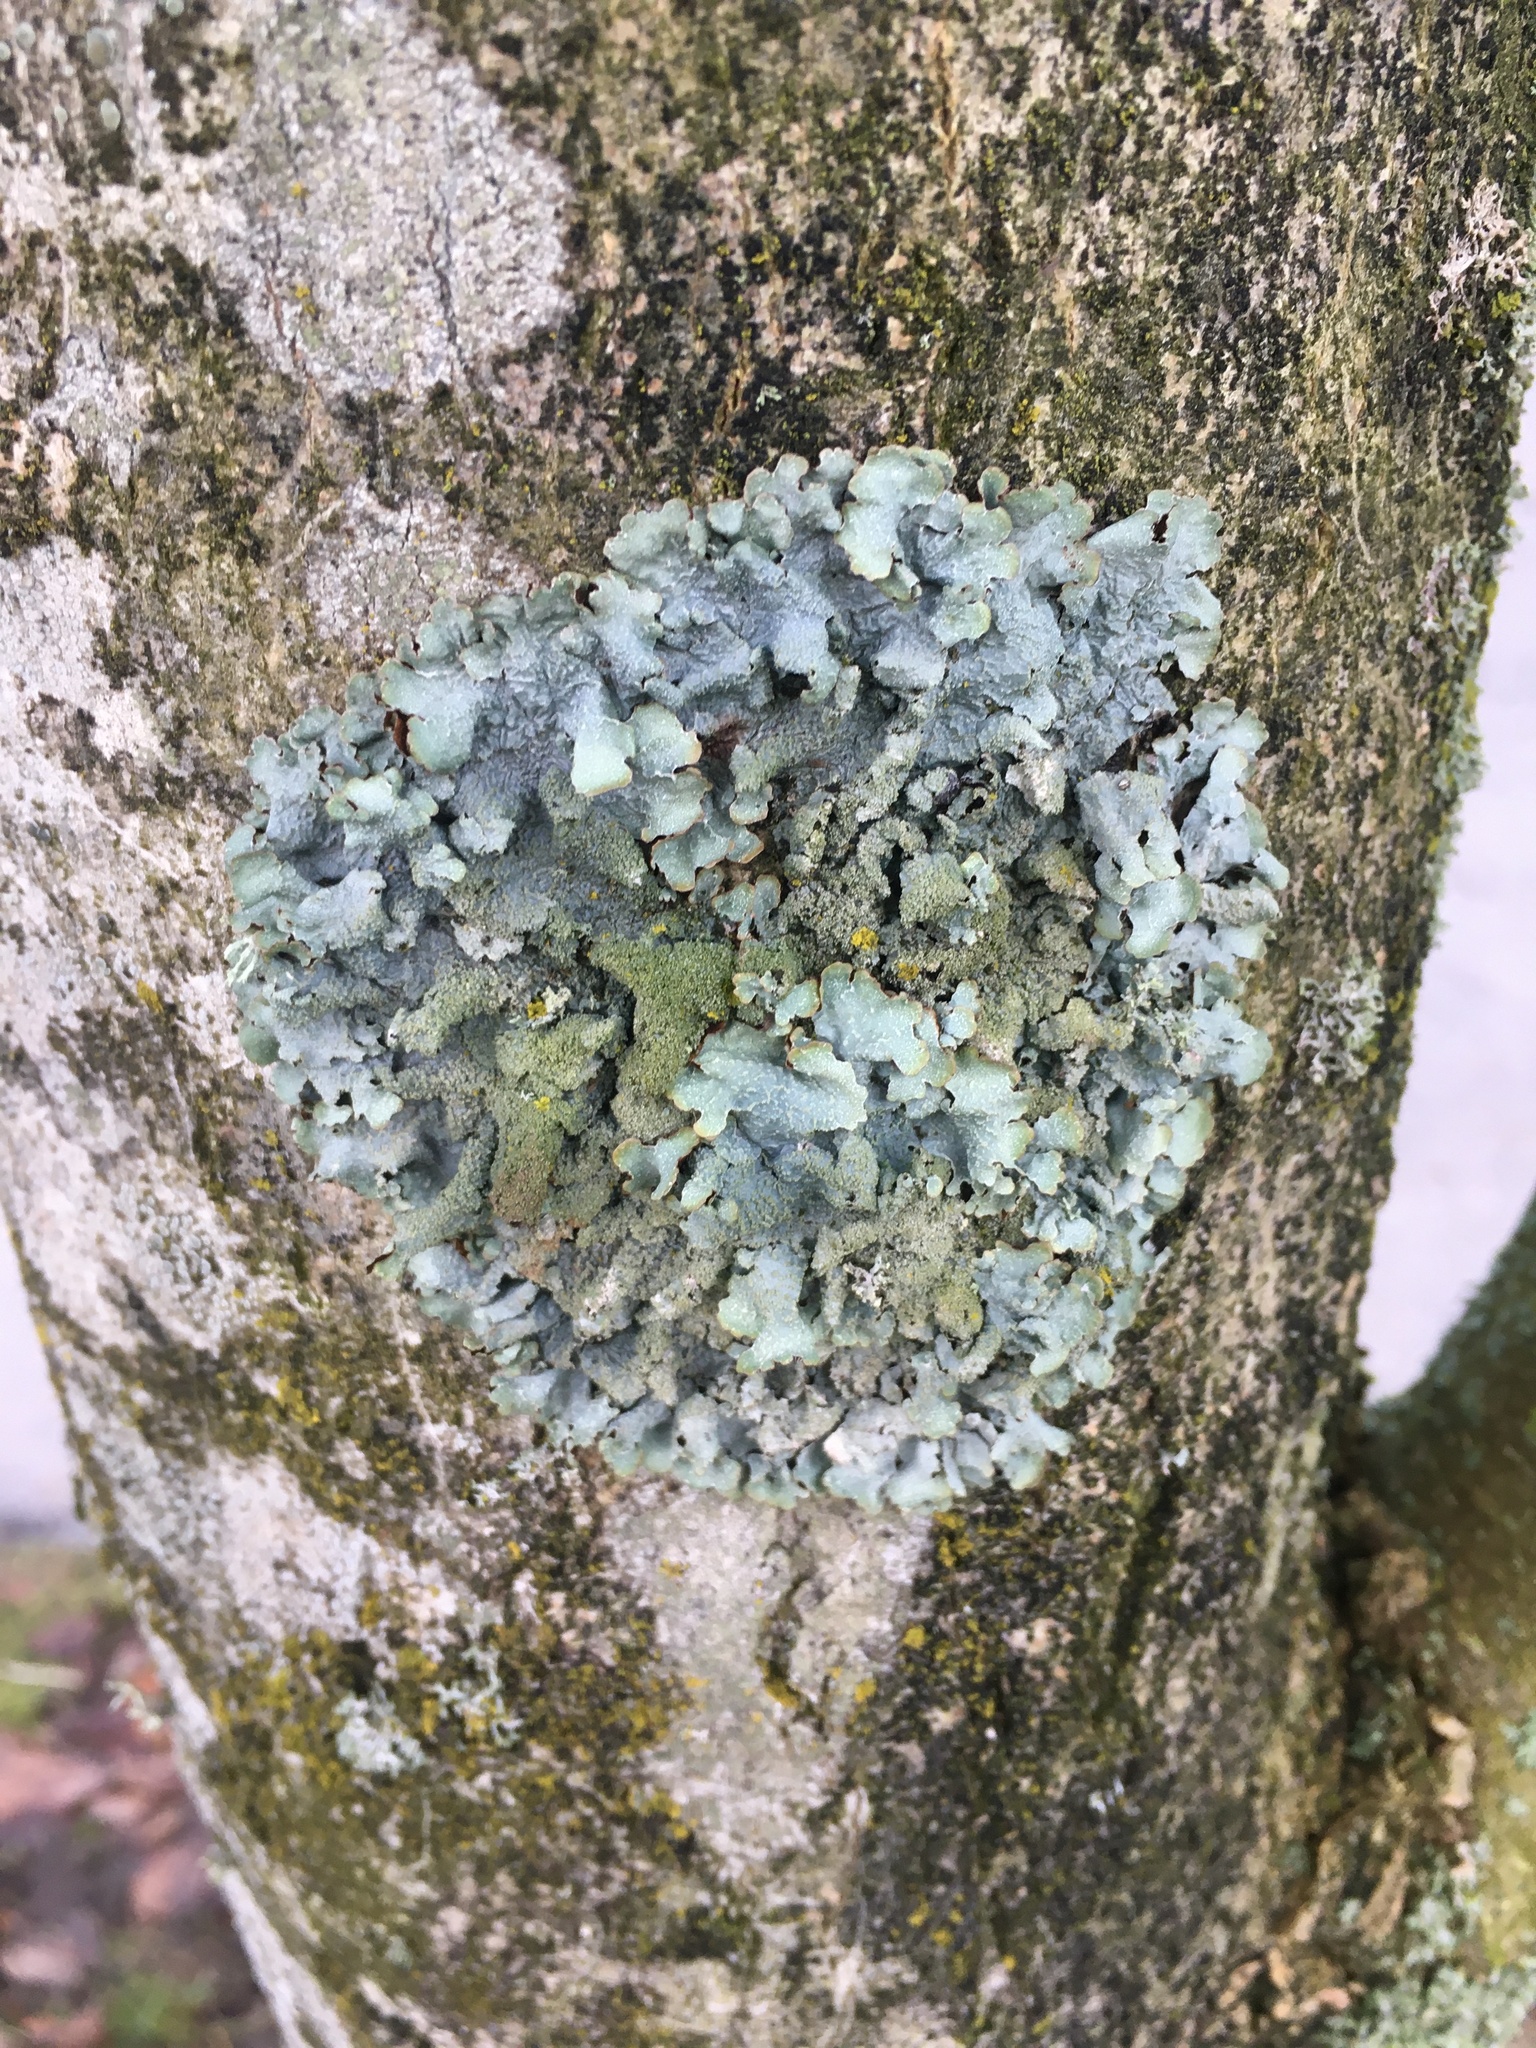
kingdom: Fungi
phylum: Ascomycota
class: Lecanoromycetes
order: Lecanorales
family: Parmeliaceae
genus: Parmelia
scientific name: Parmelia sulcata
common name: Netted shield lichen
